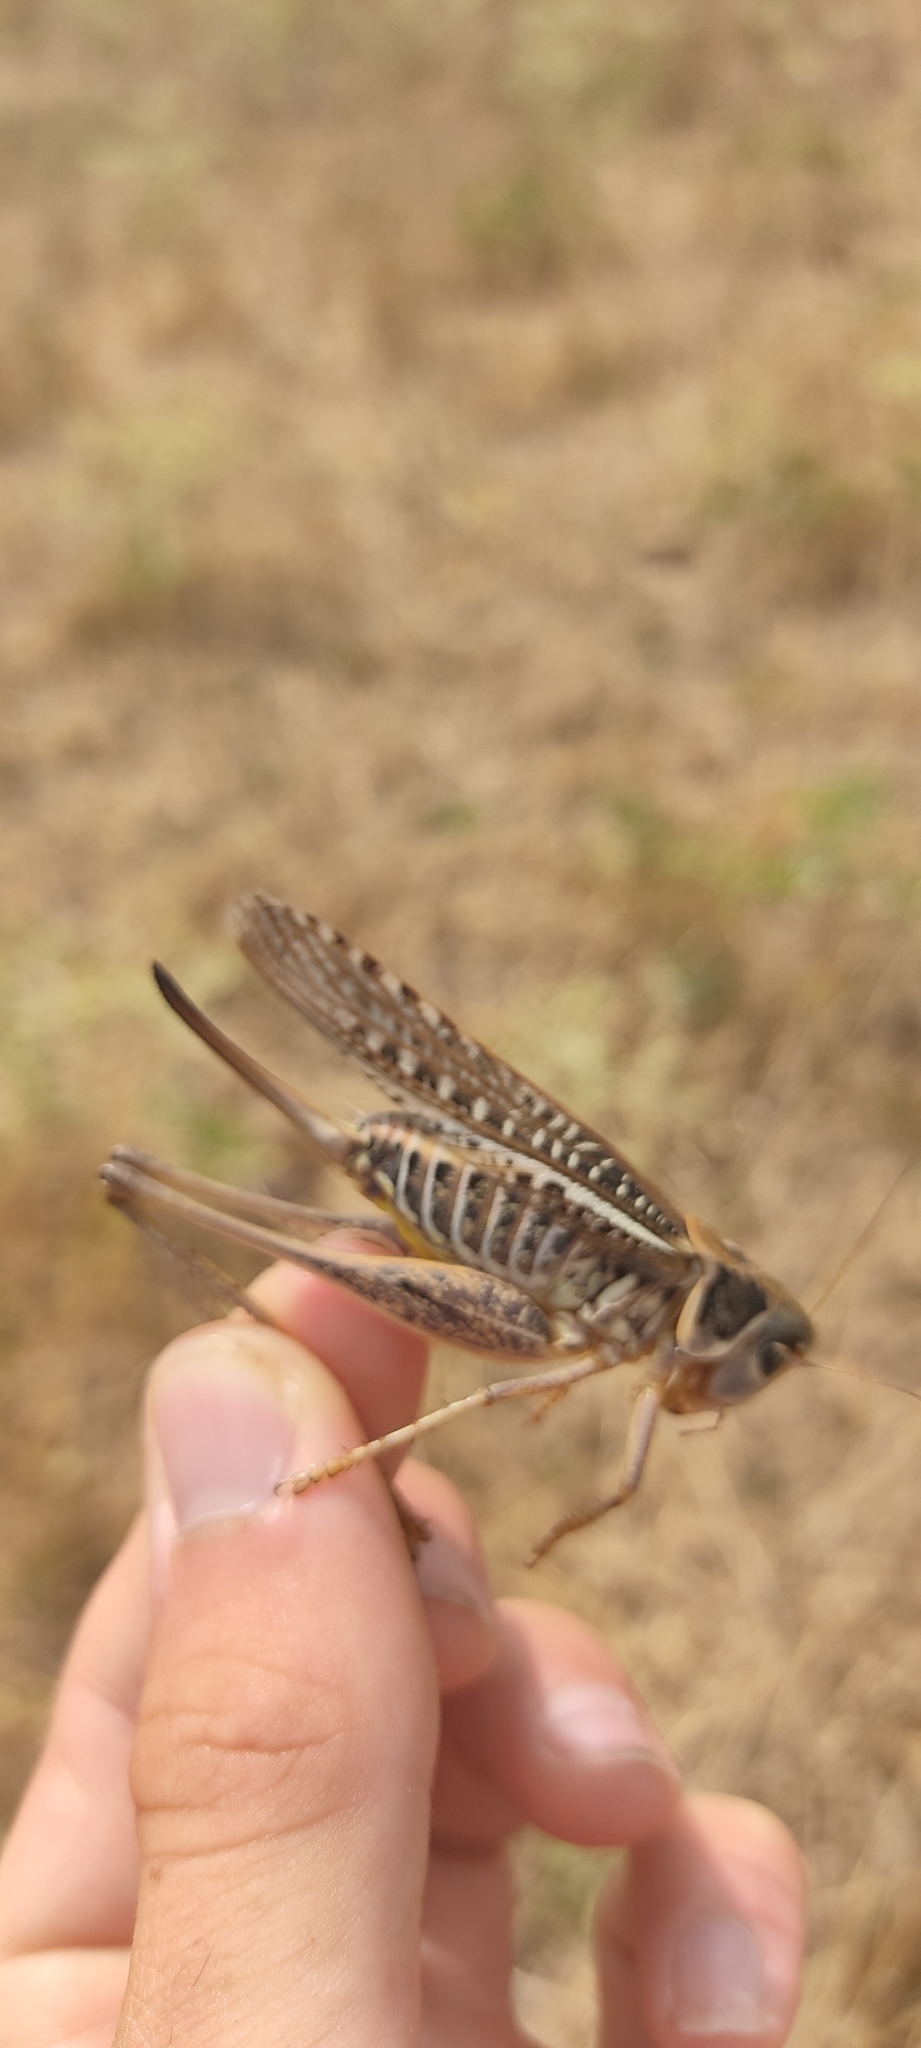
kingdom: Animalia
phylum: Arthropoda
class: Insecta
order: Orthoptera
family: Tettigoniidae
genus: Decticus
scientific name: Decticus albifrons
